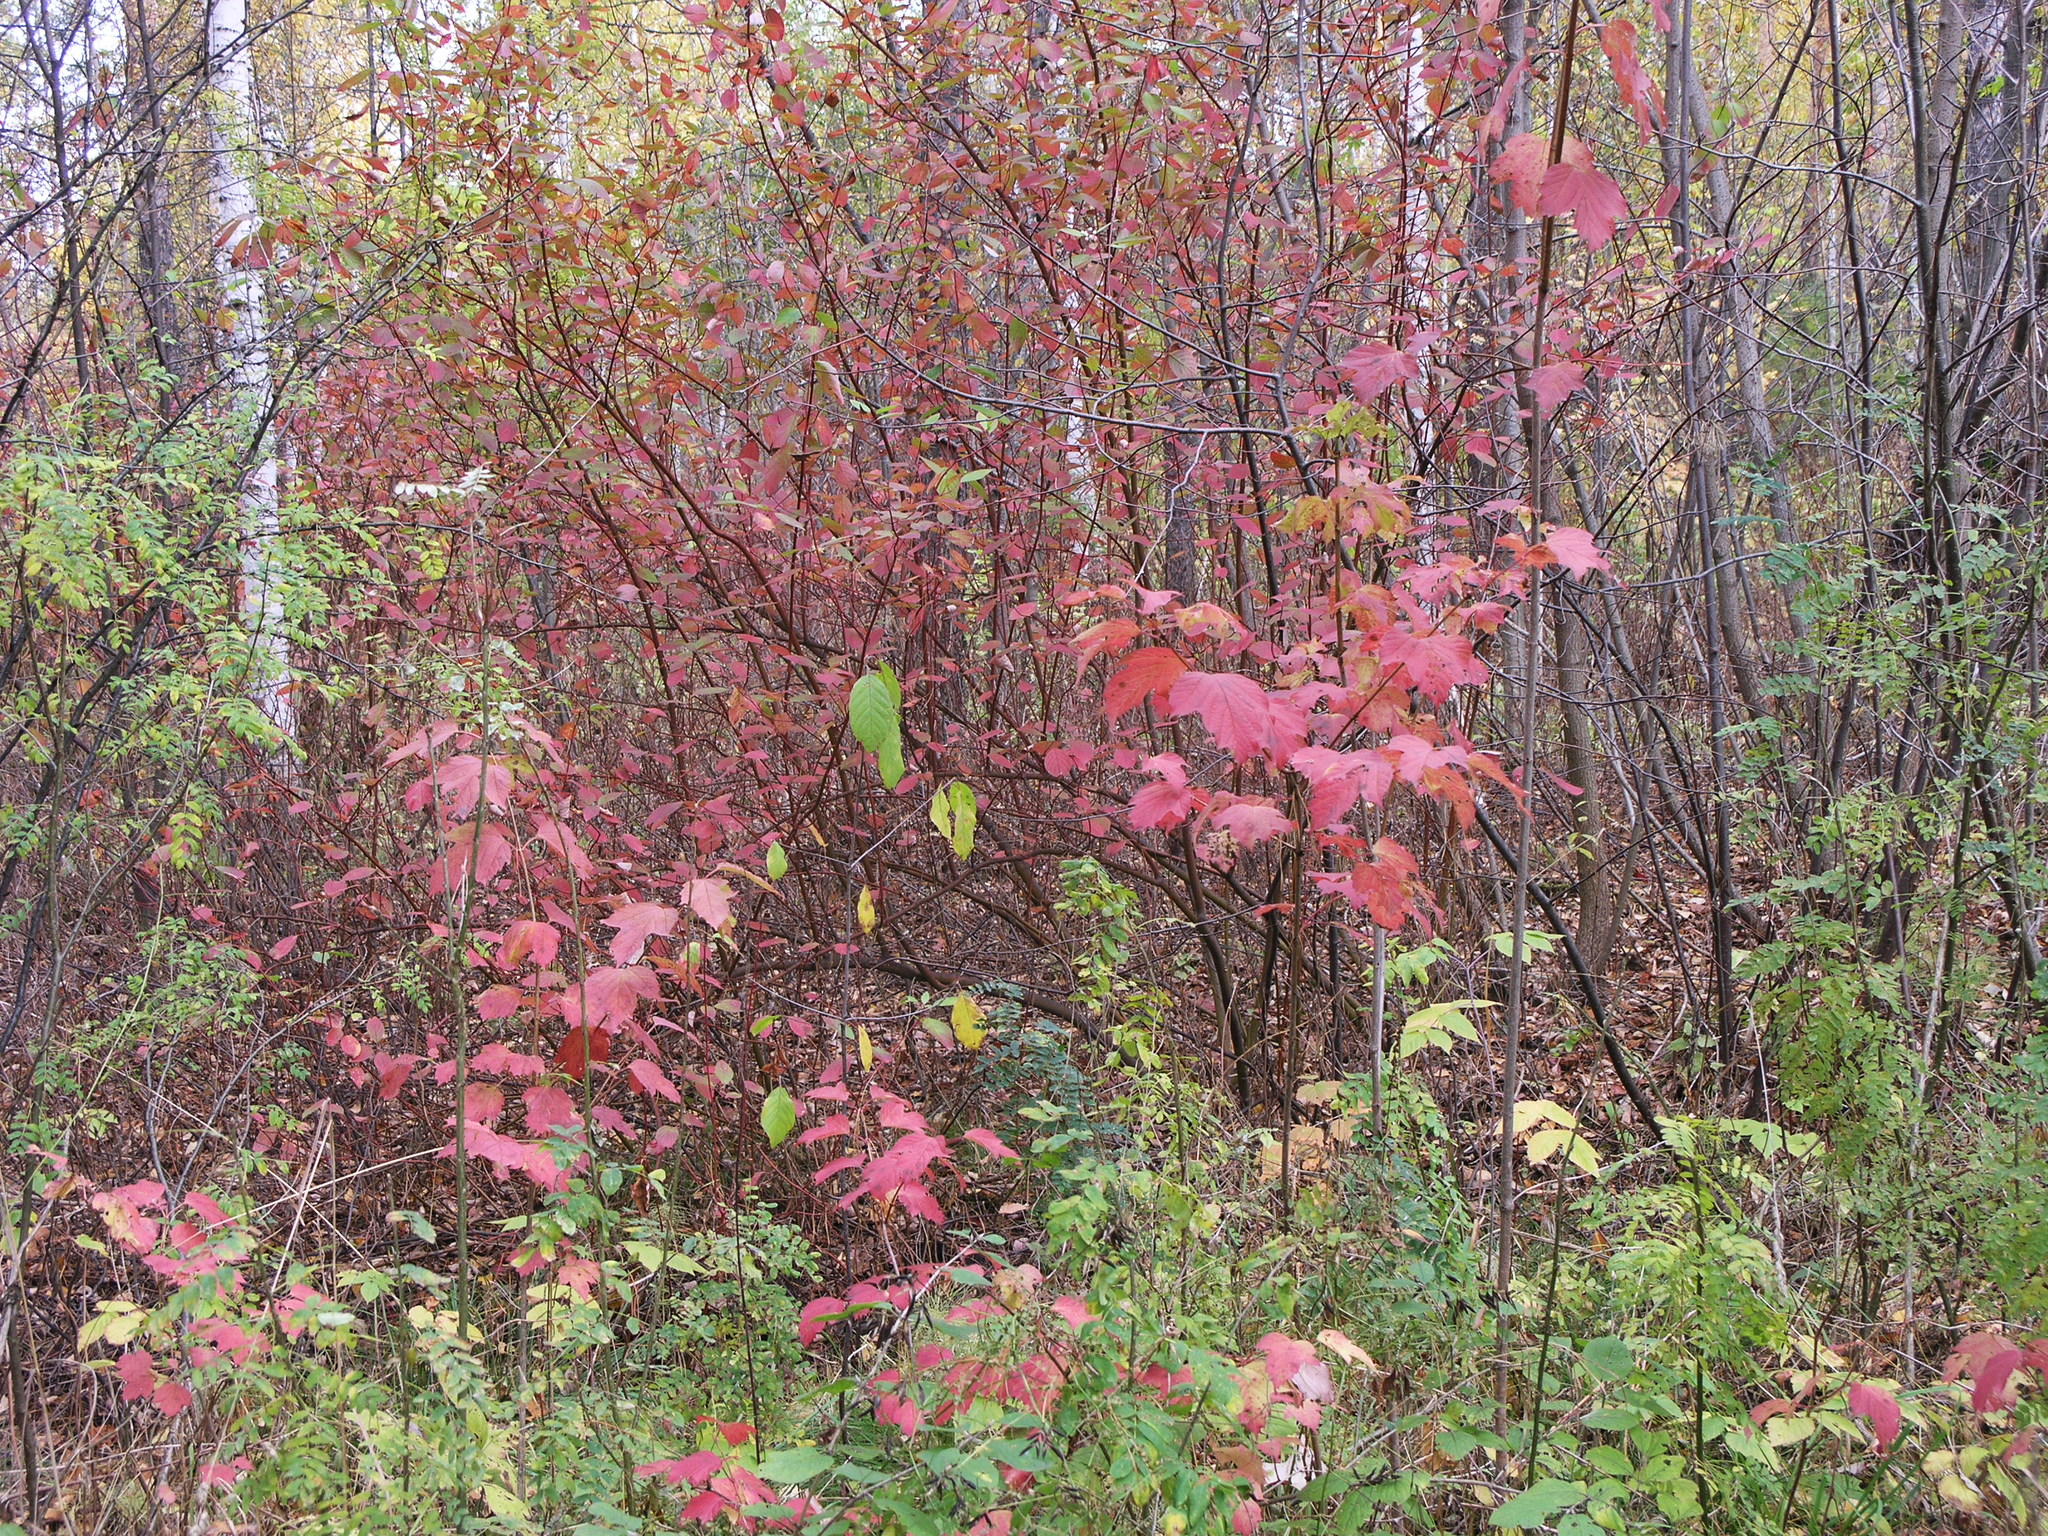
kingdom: Plantae
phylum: Tracheophyta
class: Magnoliopsida
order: Dipsacales
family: Viburnaceae
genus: Viburnum
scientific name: Viburnum opulus
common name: Guelder-rose
